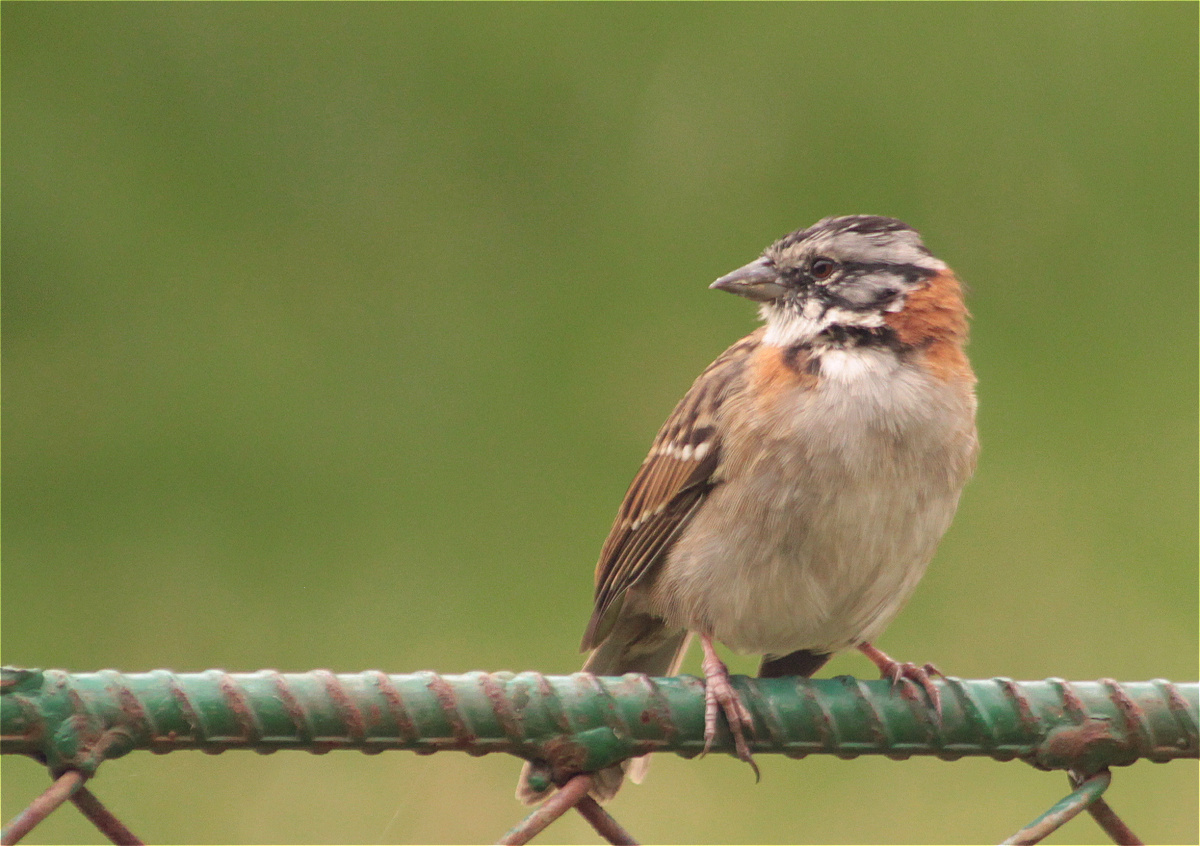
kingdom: Animalia
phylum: Chordata
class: Aves
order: Passeriformes
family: Passerellidae
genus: Zonotrichia
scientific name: Zonotrichia capensis
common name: Rufous-collared sparrow
